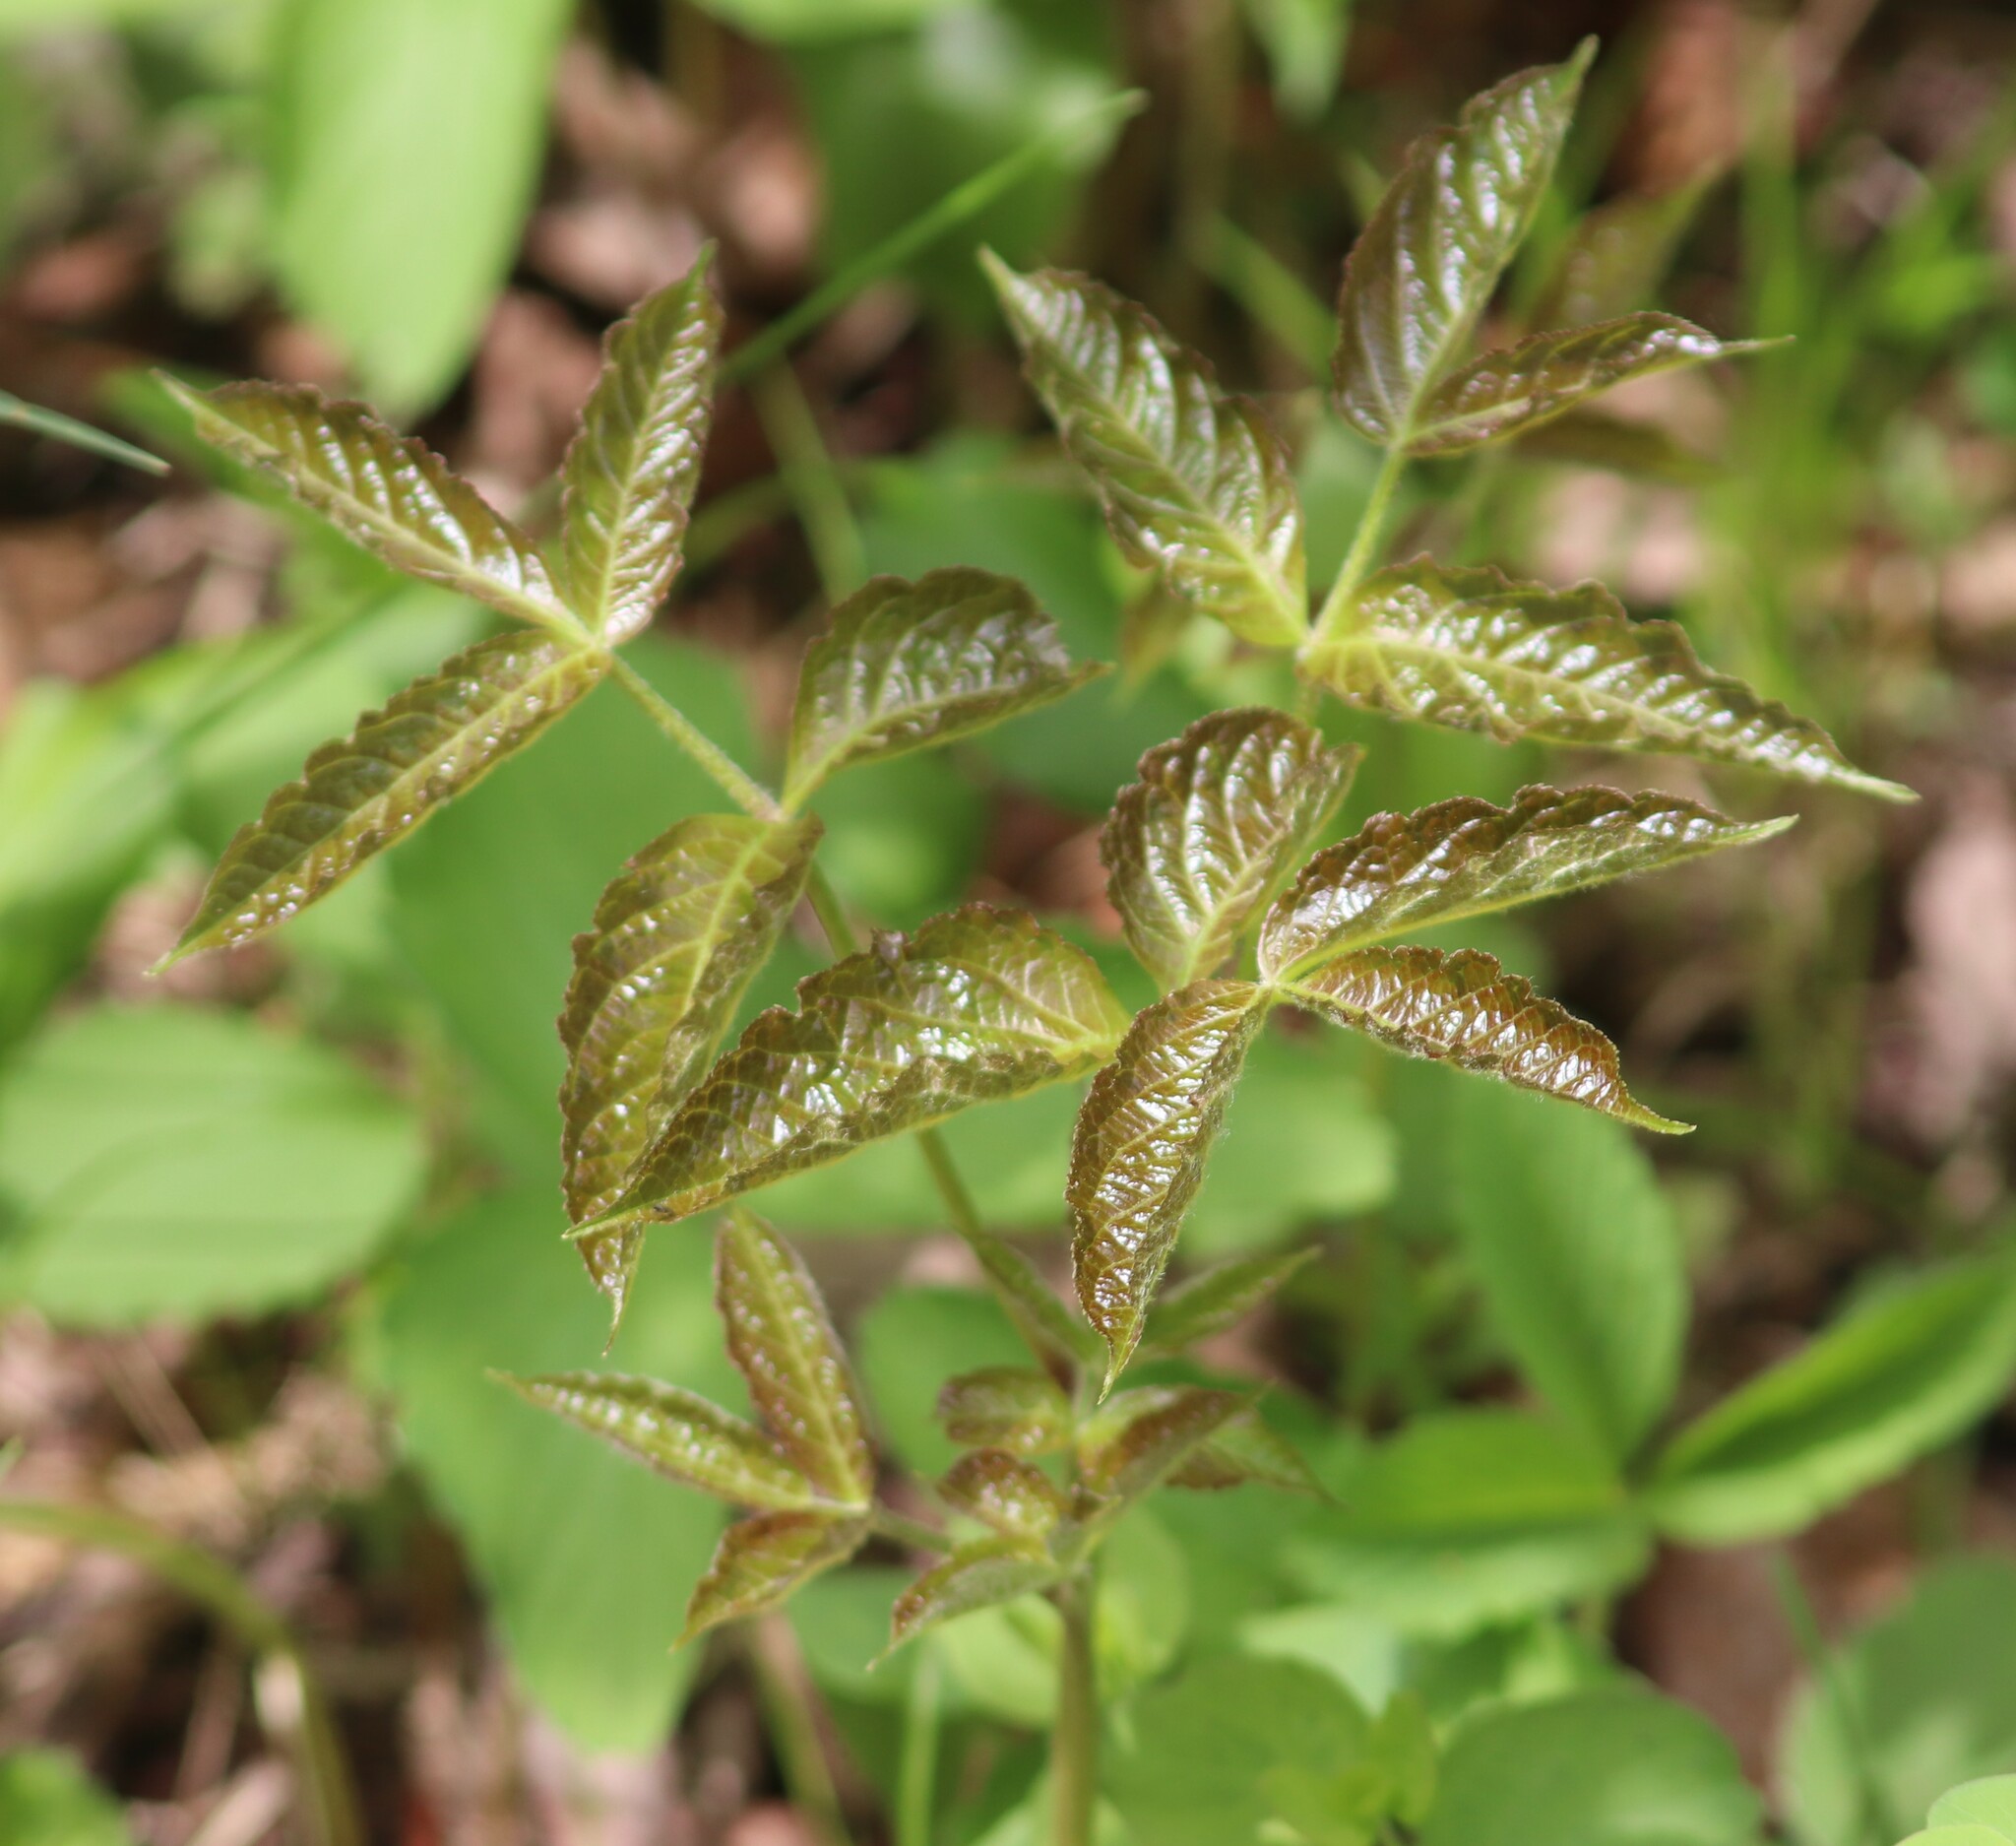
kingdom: Plantae
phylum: Tracheophyta
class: Magnoliopsida
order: Apiales
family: Araliaceae
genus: Aralia
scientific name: Aralia nudicaulis
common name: Wild sarsaparilla
